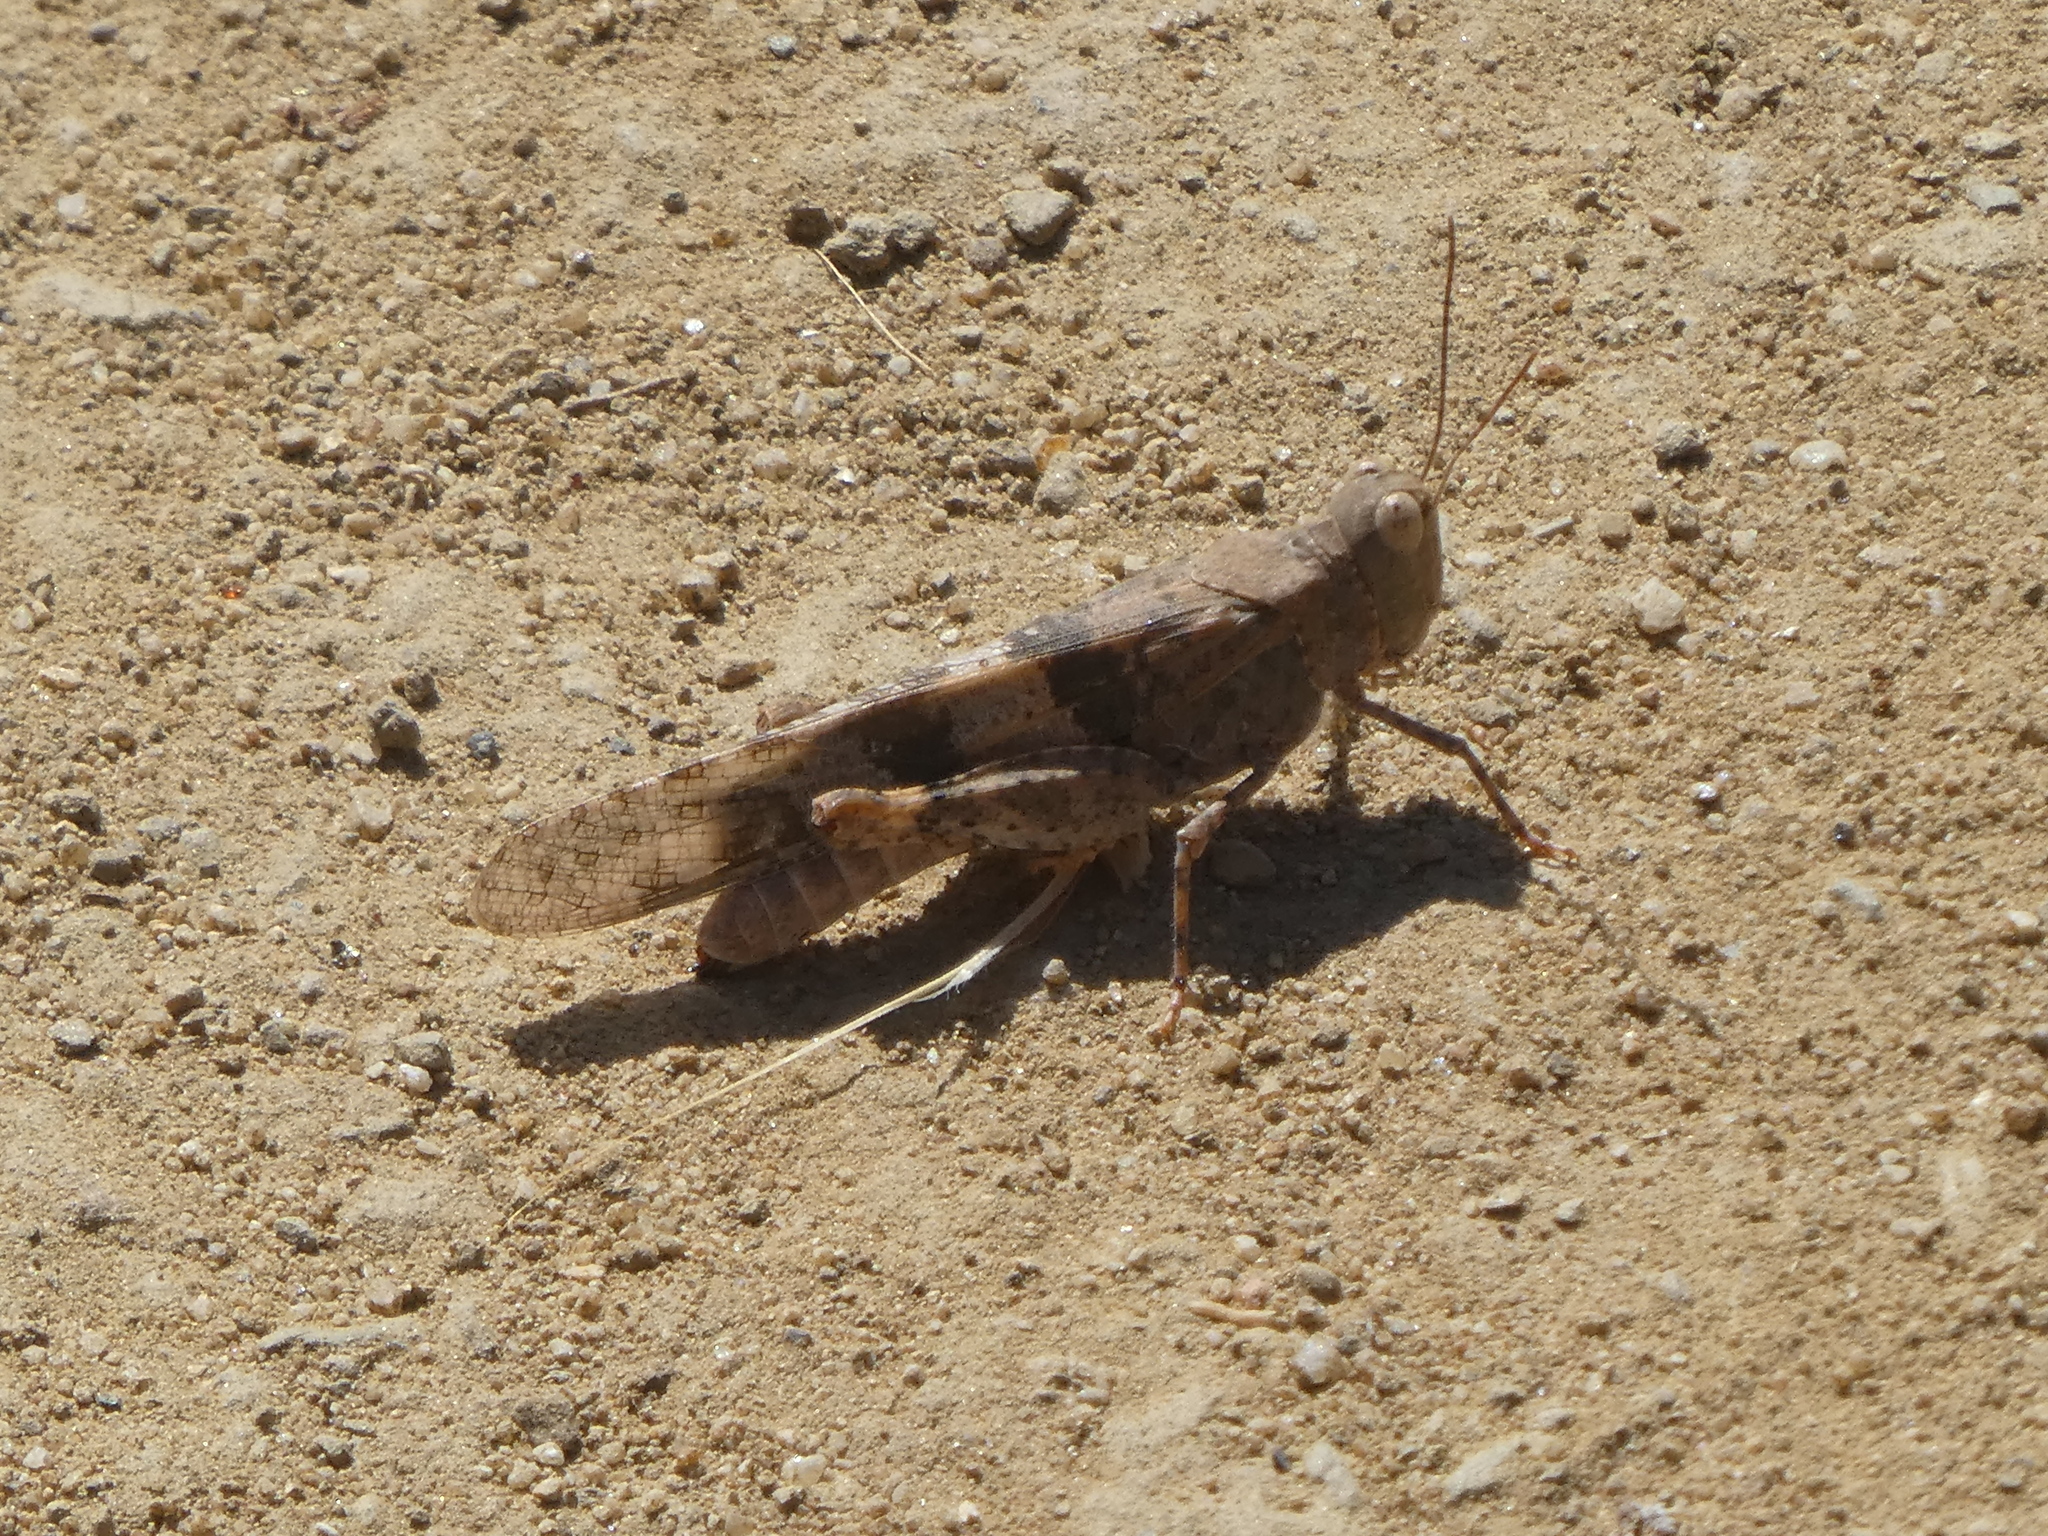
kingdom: Animalia
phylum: Arthropoda
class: Insecta
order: Orthoptera
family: Acrididae
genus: Trimerotropis
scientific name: Trimerotropis pallidipennis
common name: Pallid-winged grasshopper
